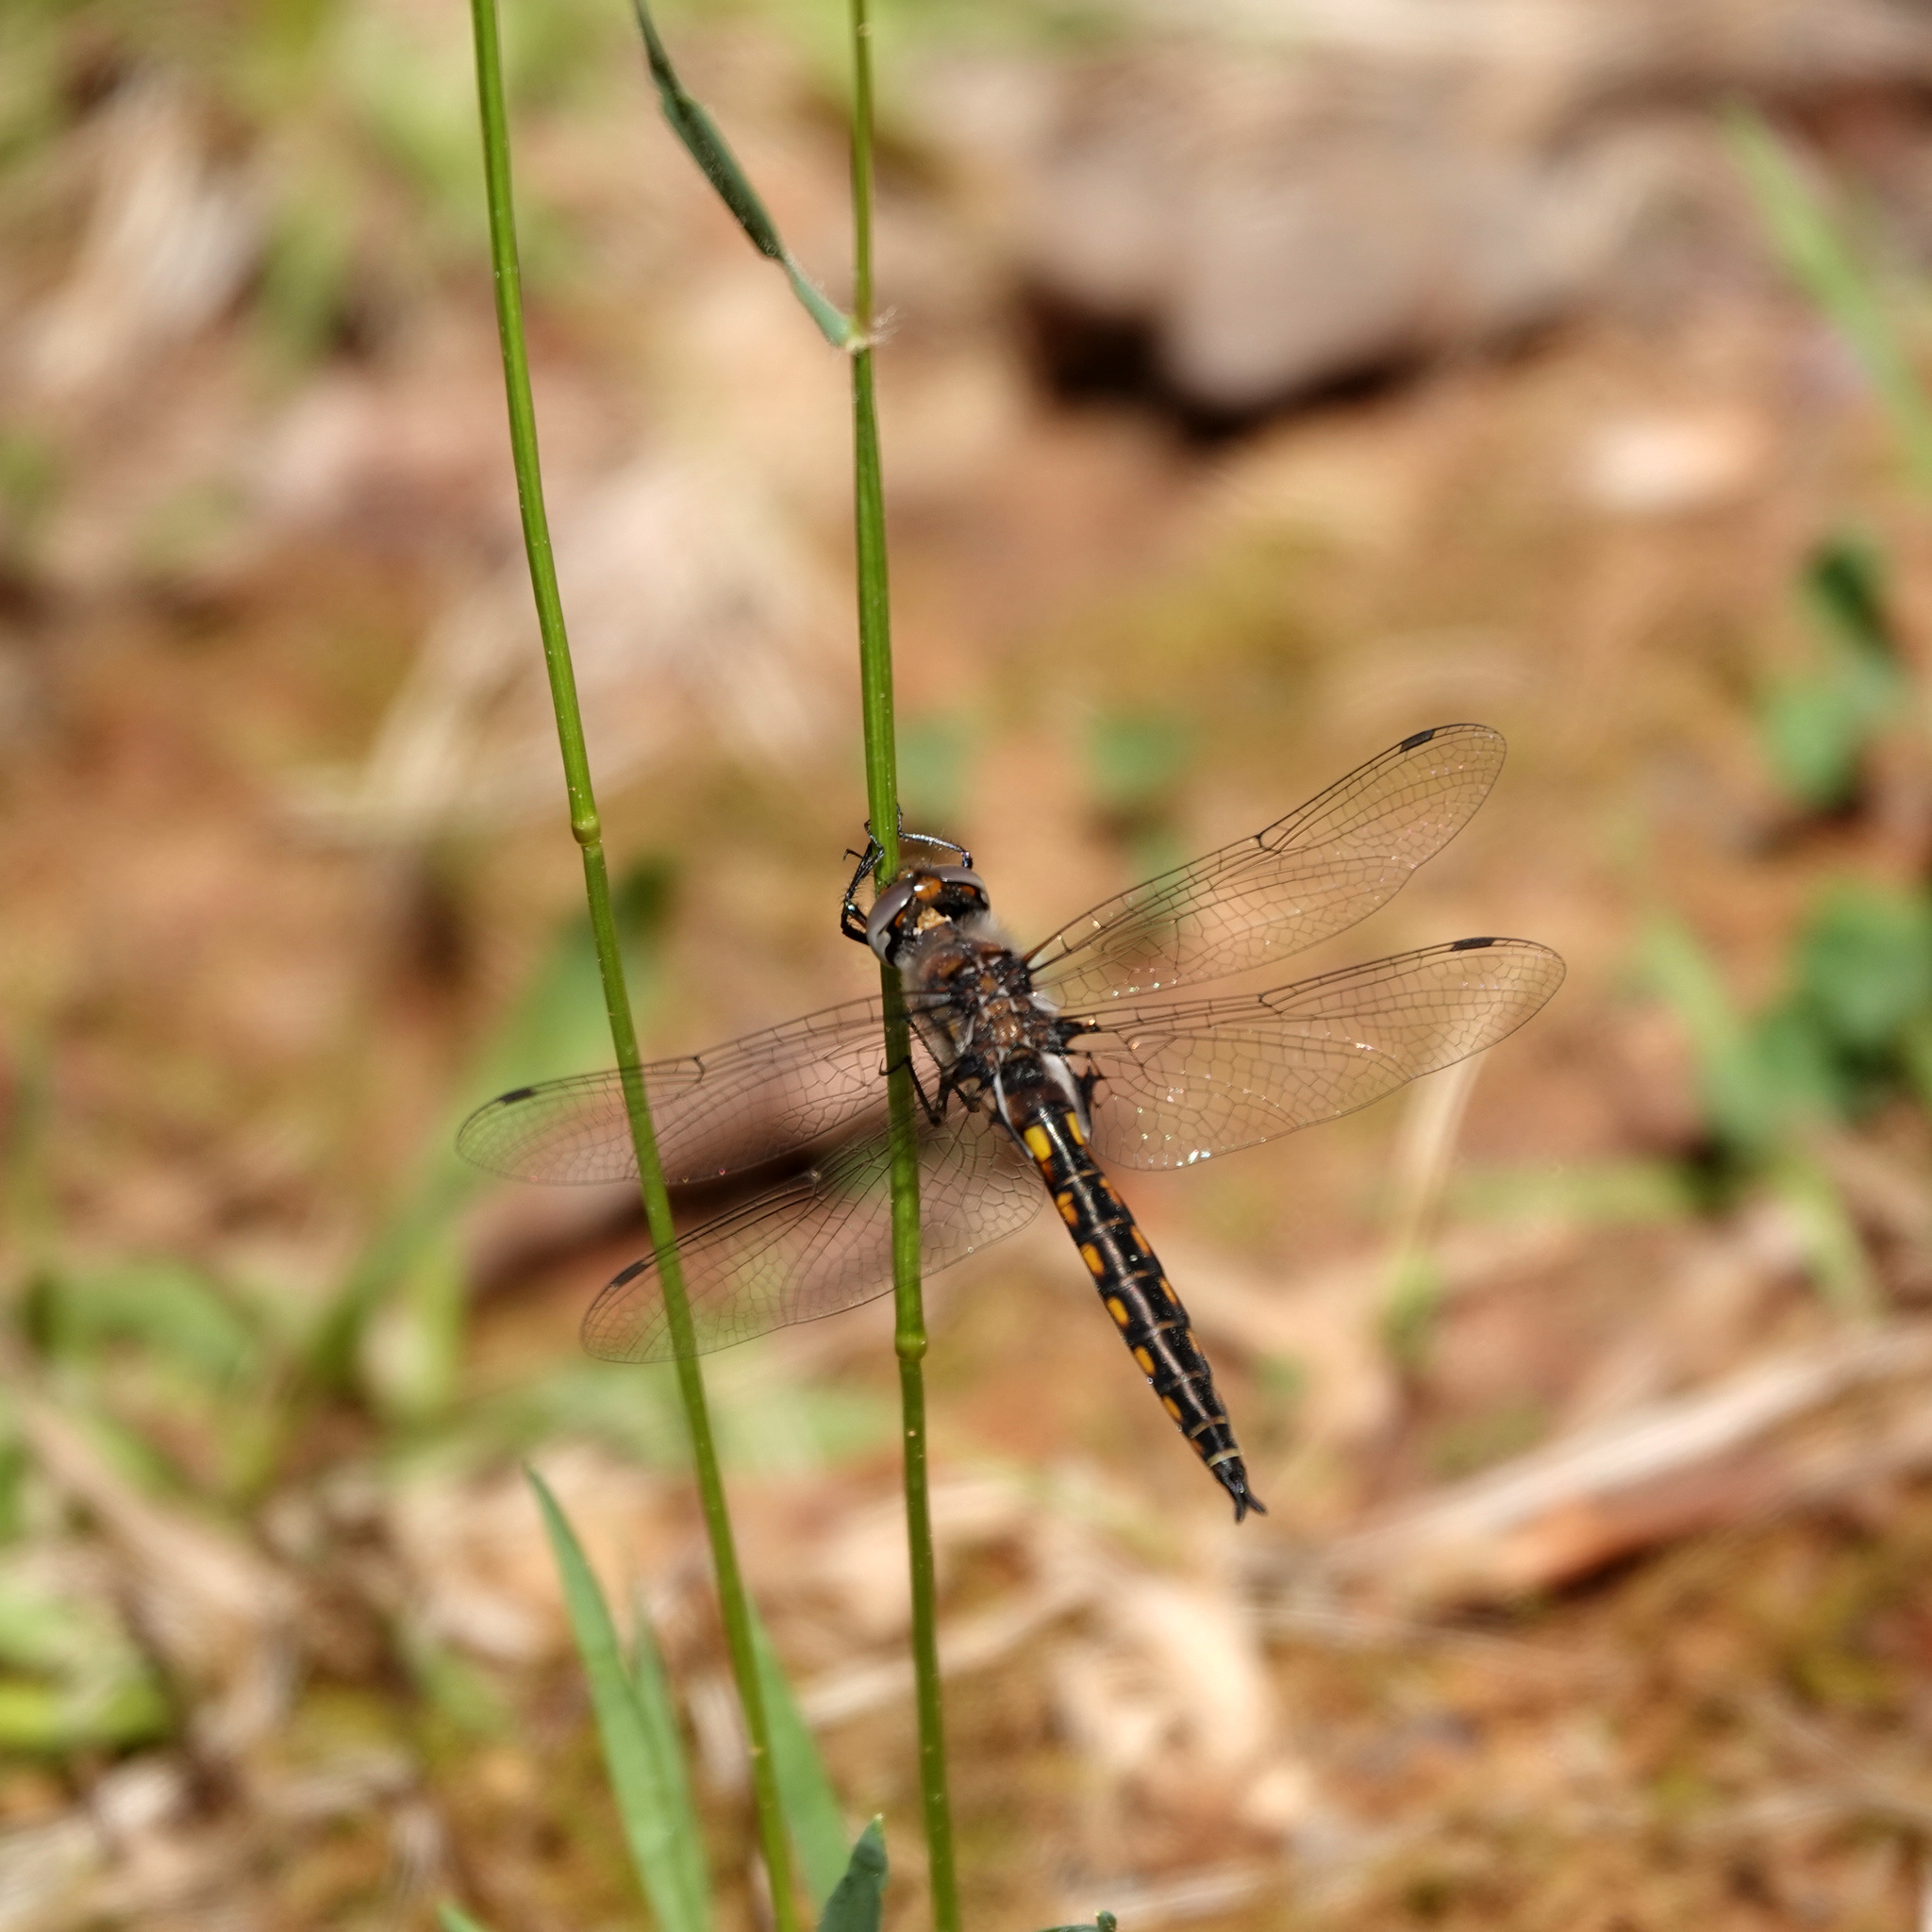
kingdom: Animalia
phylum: Arthropoda
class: Insecta
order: Odonata
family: Corduliidae
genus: Epitheca
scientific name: Epitheca cynosura
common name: Common baskettail
